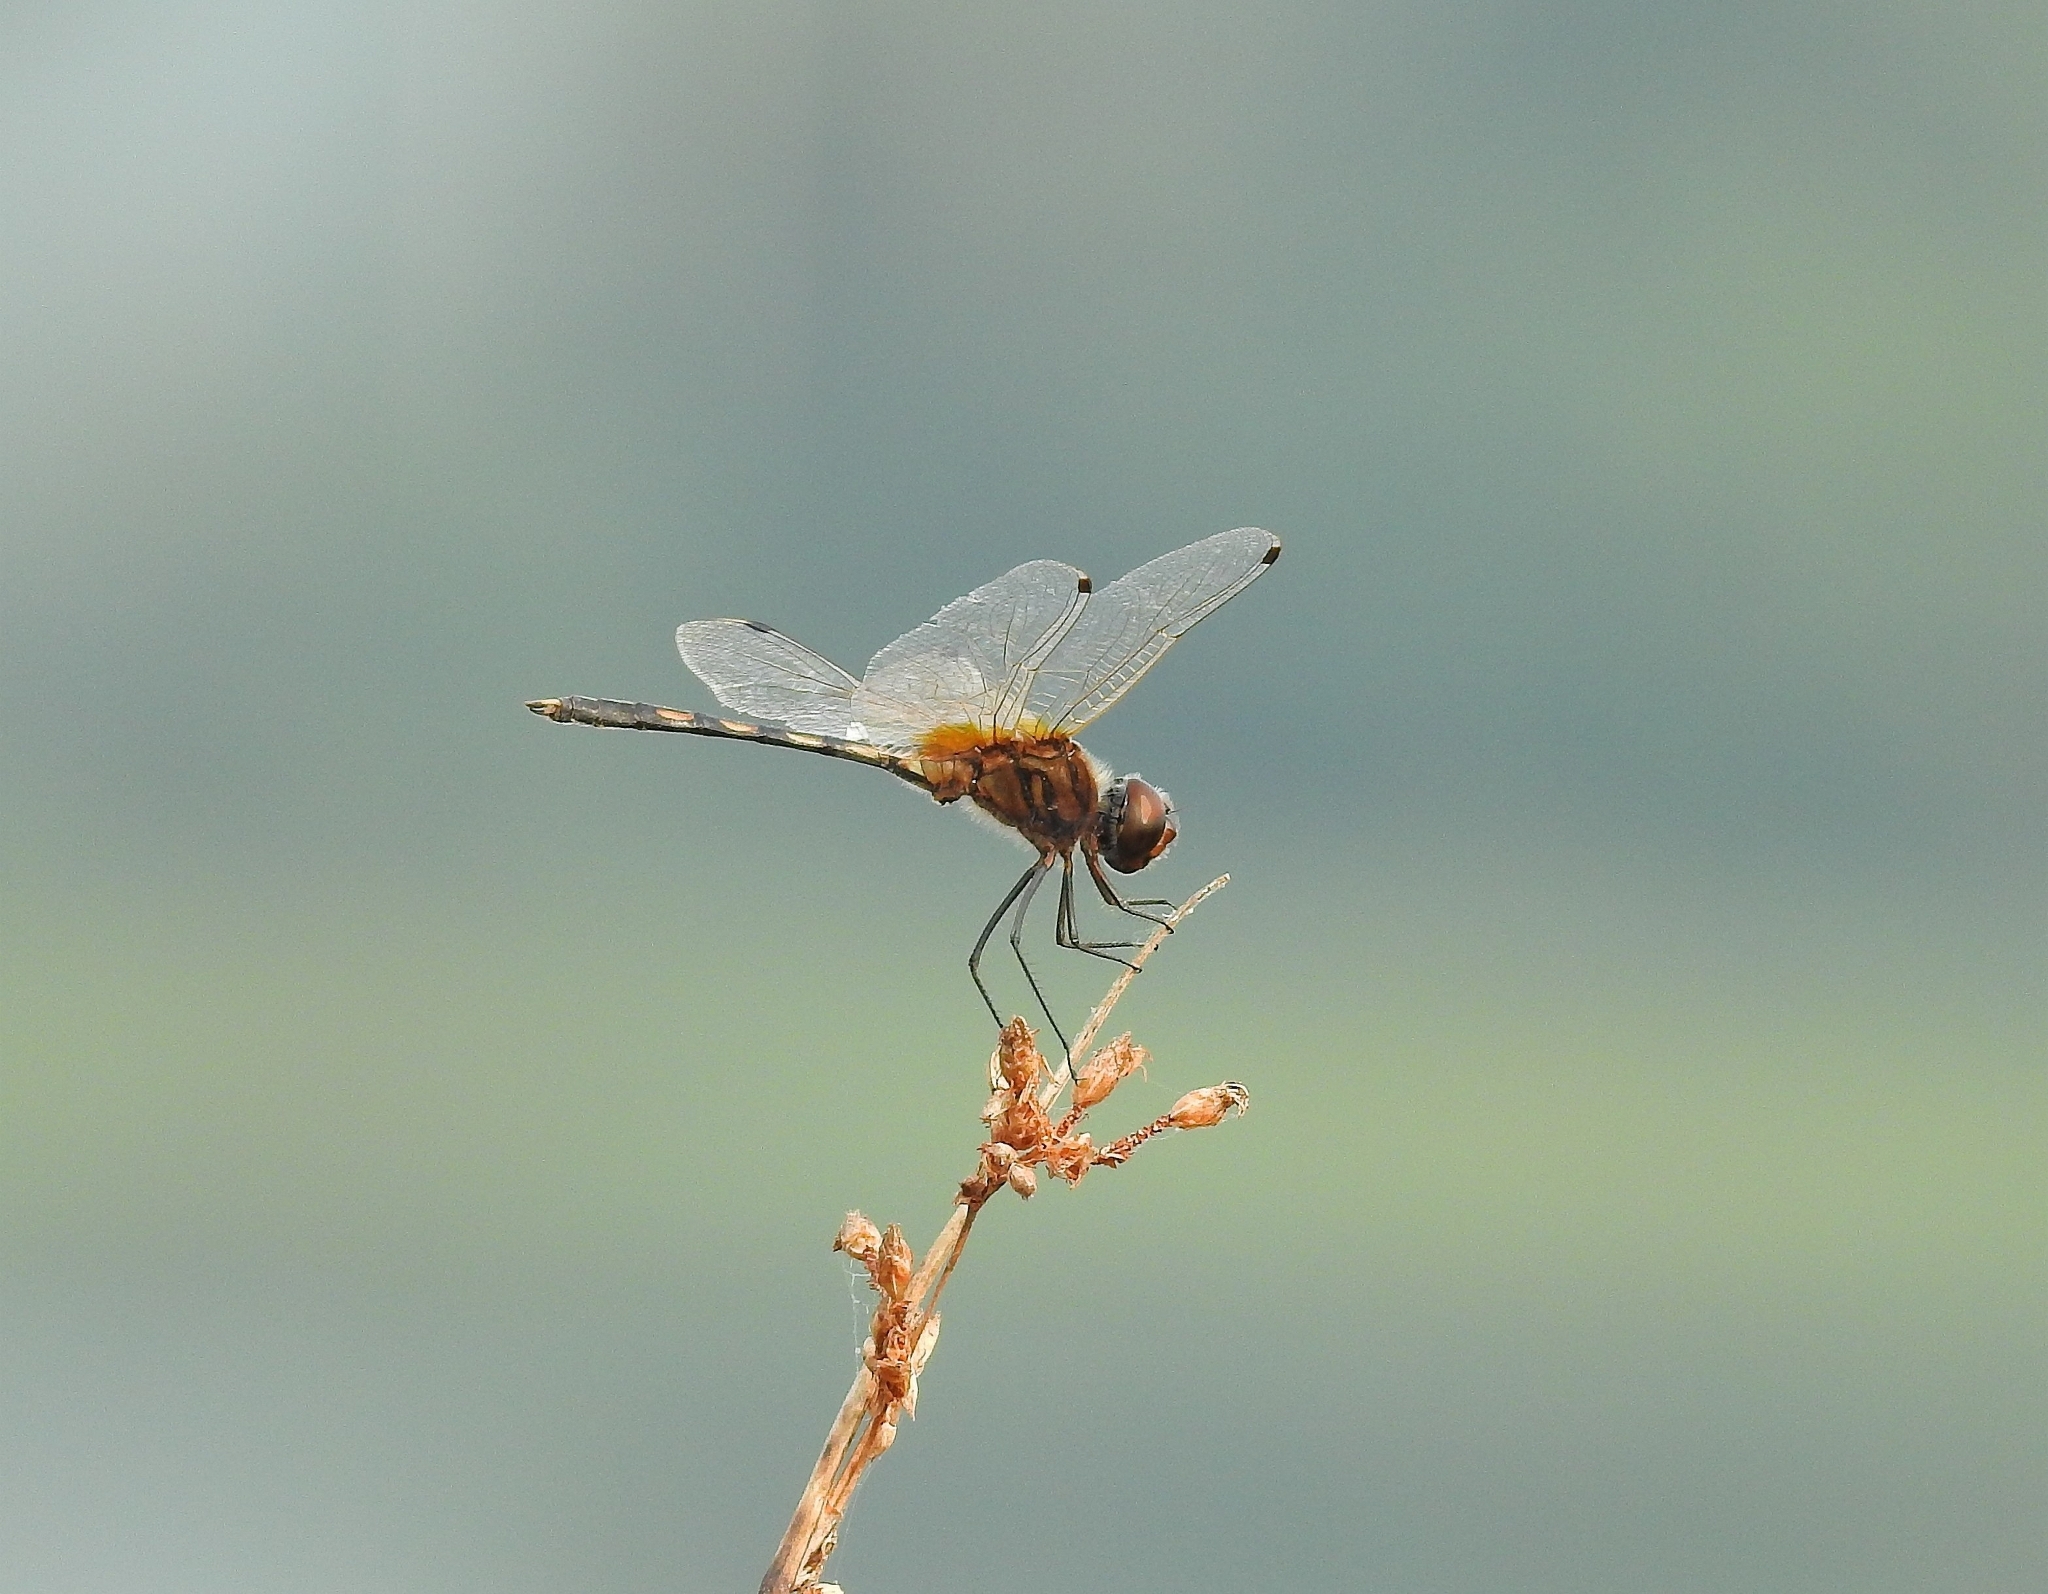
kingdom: Animalia
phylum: Arthropoda
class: Insecta
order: Odonata
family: Libellulidae
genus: Trithemis
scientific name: Trithemis pallidinervis
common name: Dancing dropwing
